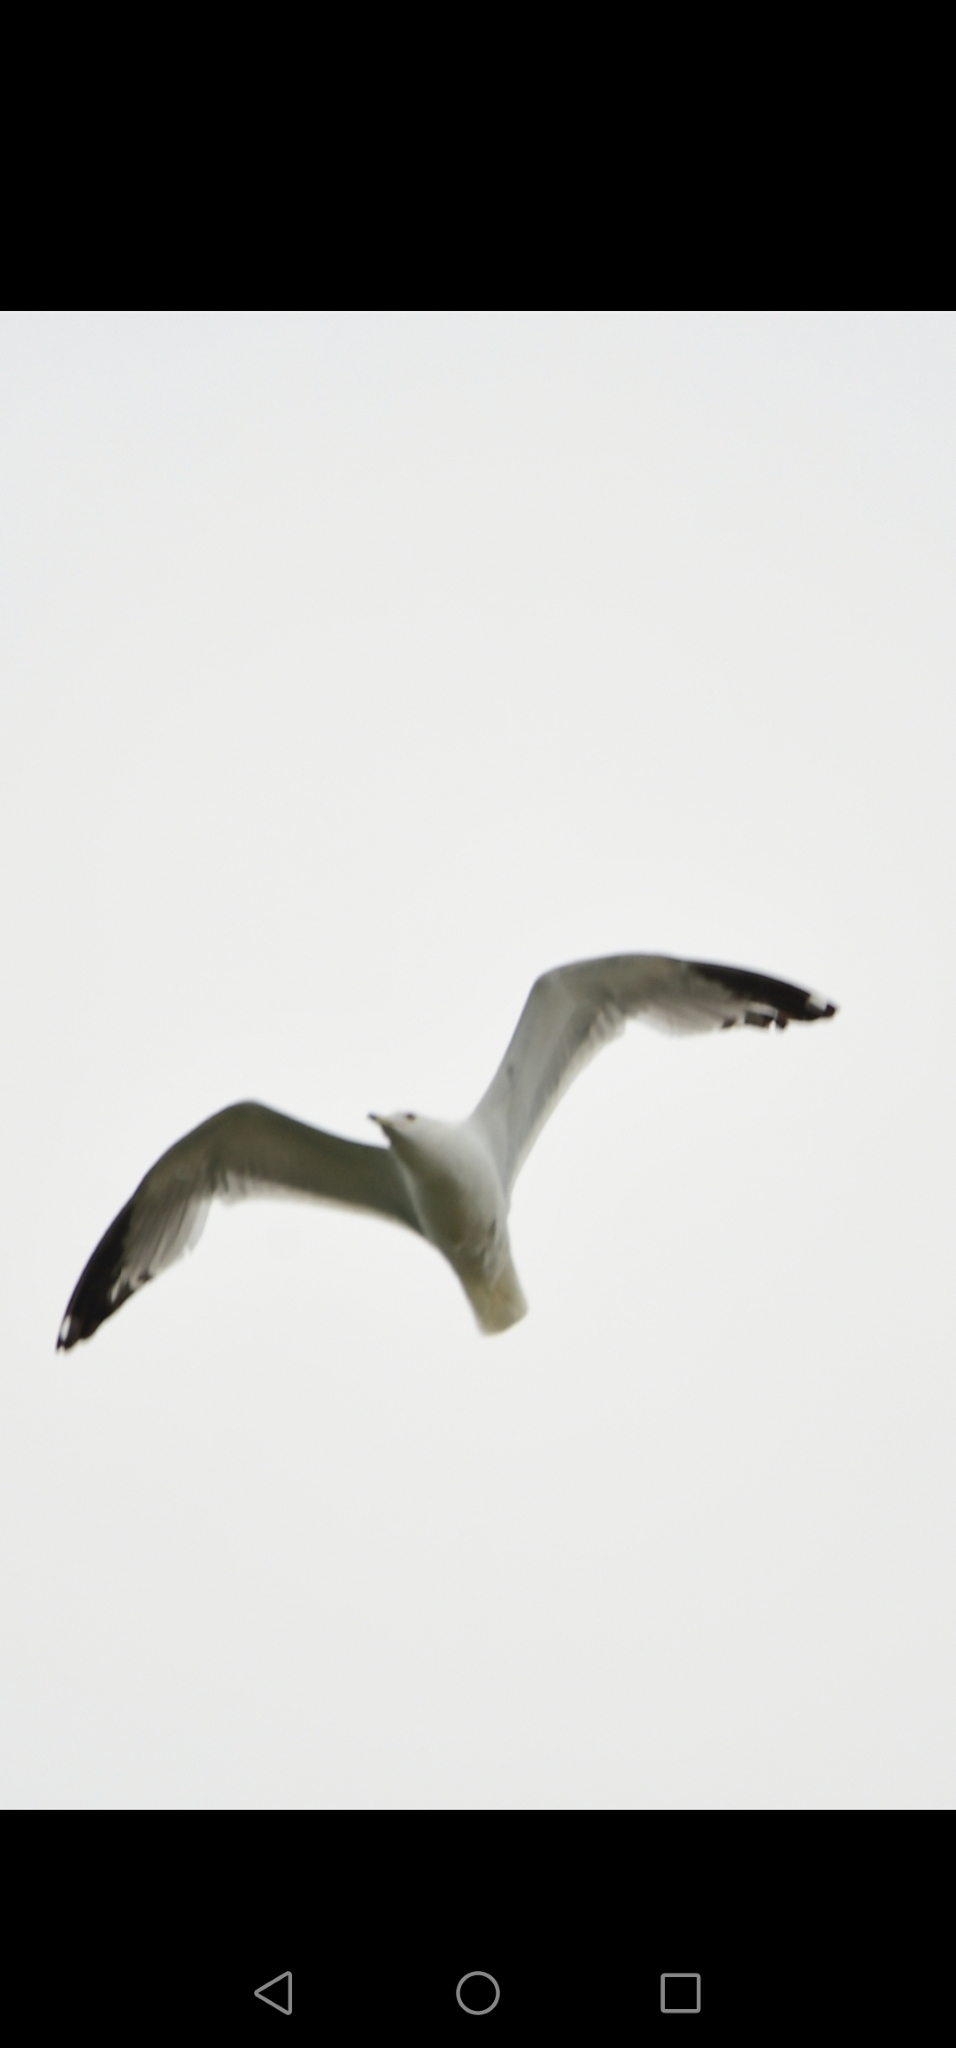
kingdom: Animalia
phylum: Chordata
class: Aves
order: Charadriiformes
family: Laridae
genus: Larus
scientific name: Larus delawarensis
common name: Ring-billed gull
